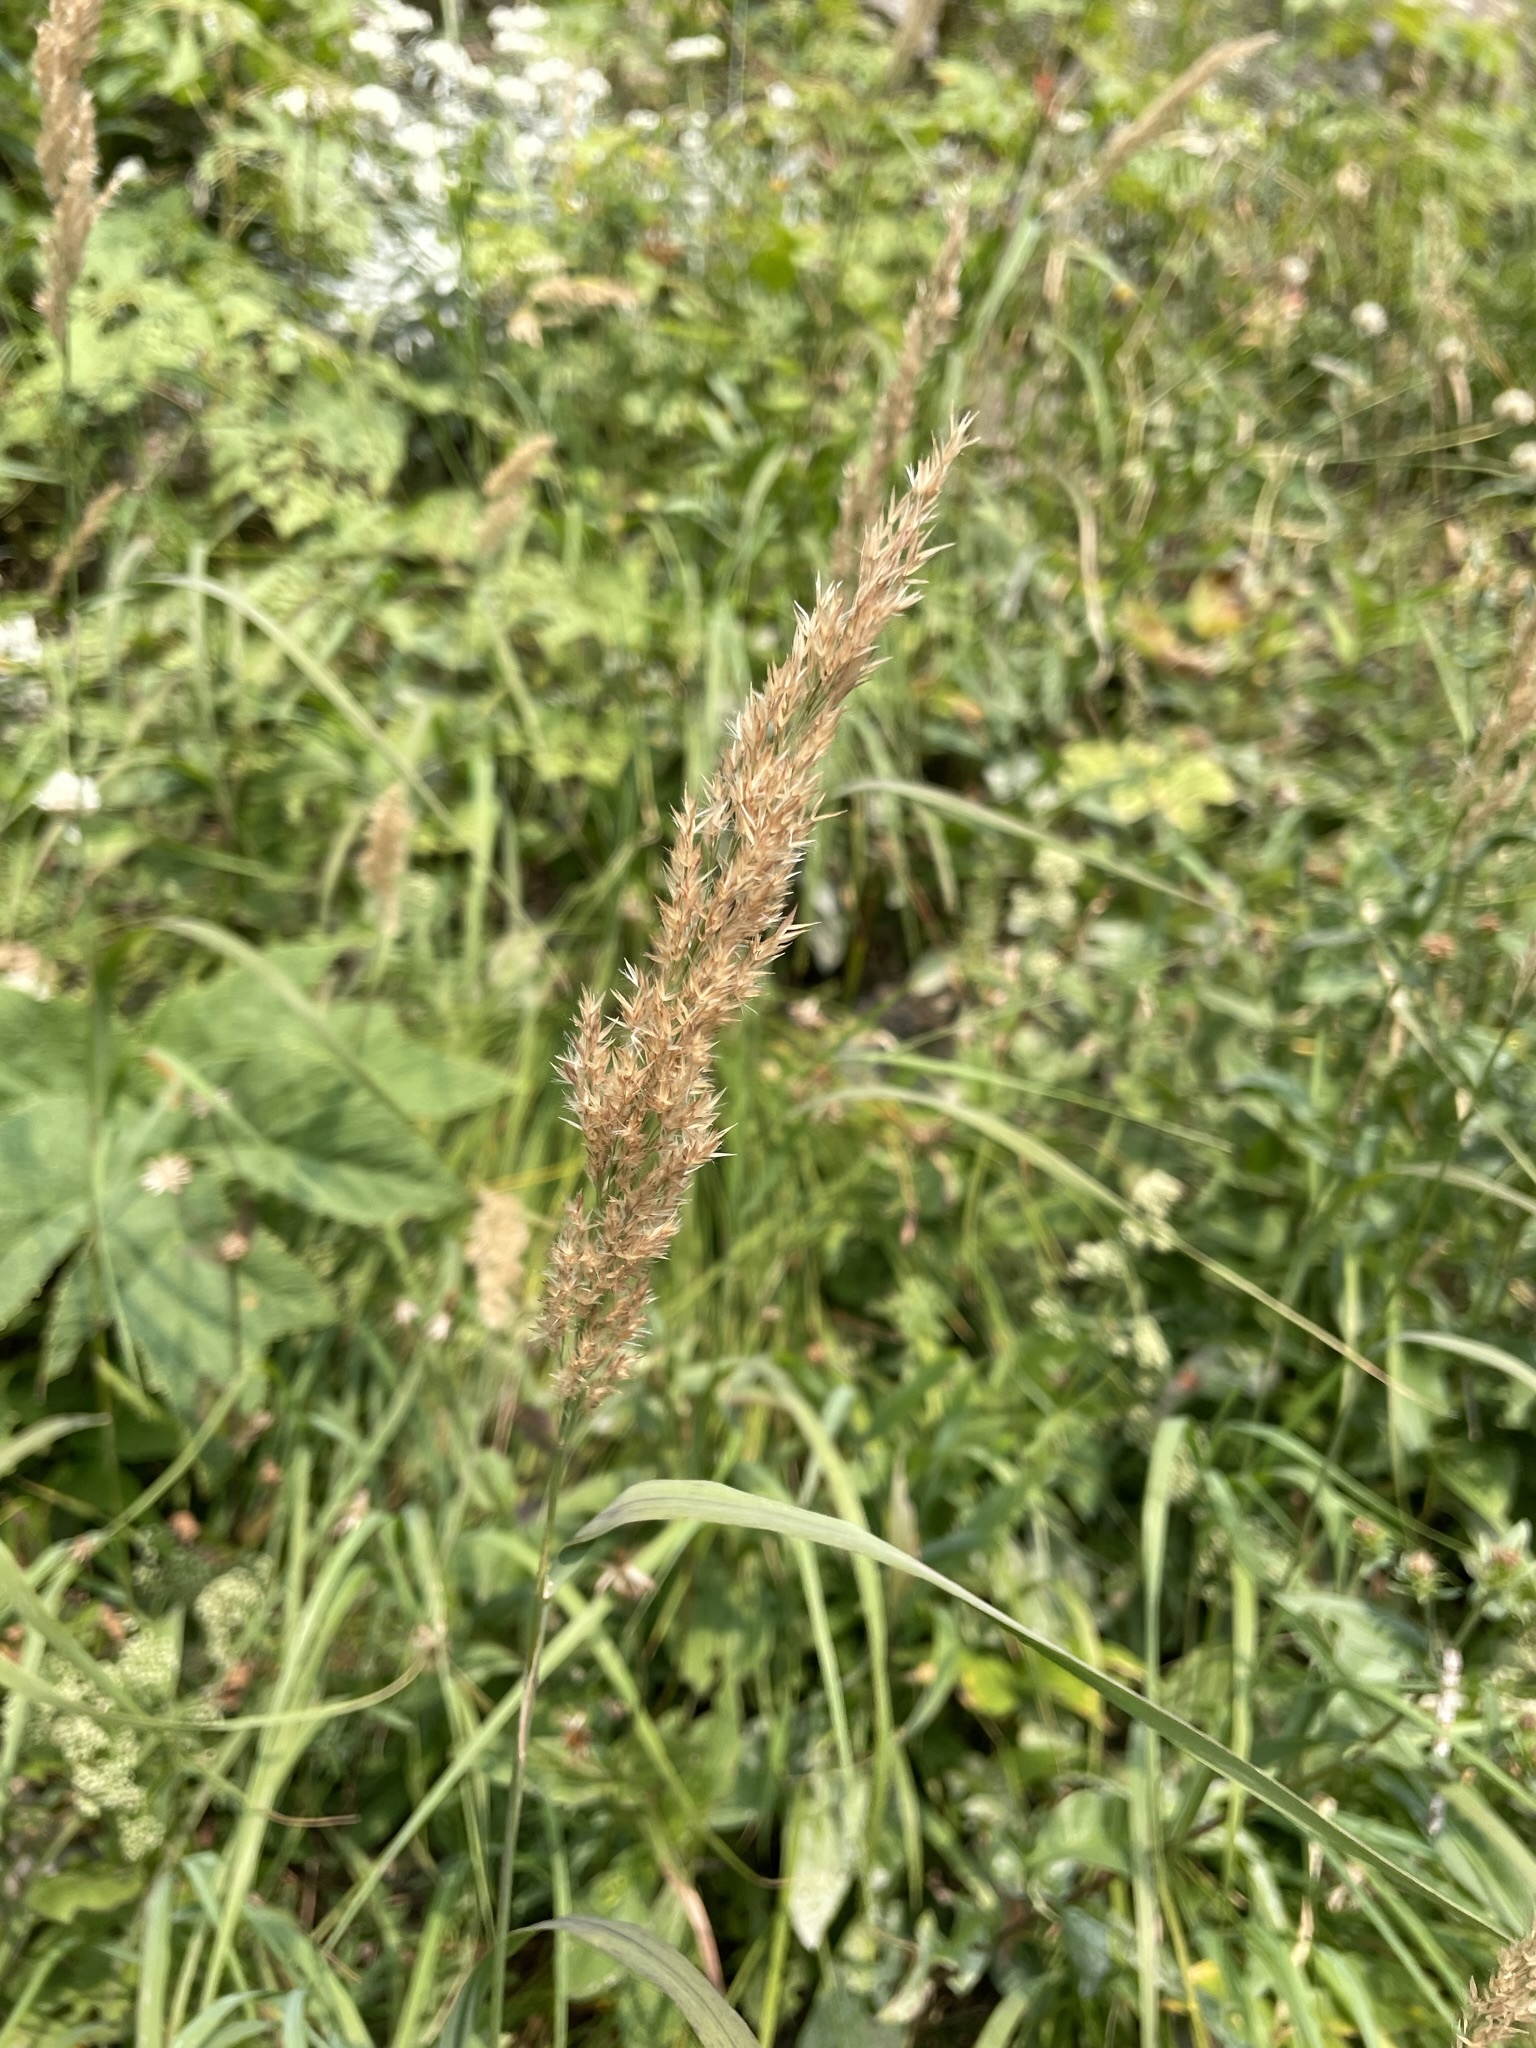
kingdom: Plantae
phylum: Tracheophyta
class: Liliopsida
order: Poales
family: Poaceae
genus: Calamagrostis
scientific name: Calamagrostis stricta
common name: Narrow small-reed
